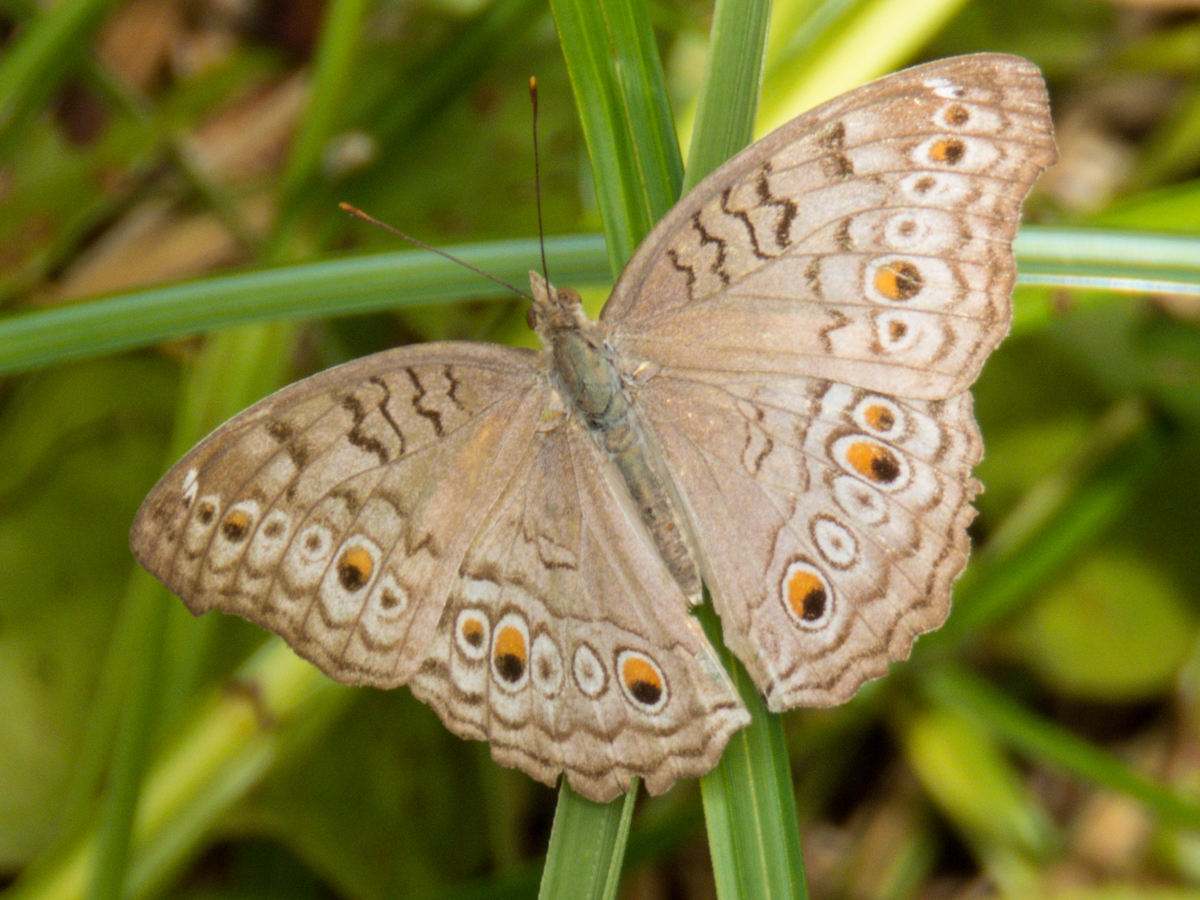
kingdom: Animalia
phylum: Arthropoda
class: Insecta
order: Lepidoptera
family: Nymphalidae
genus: Junonia
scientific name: Junonia atlites
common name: Grey pansy
